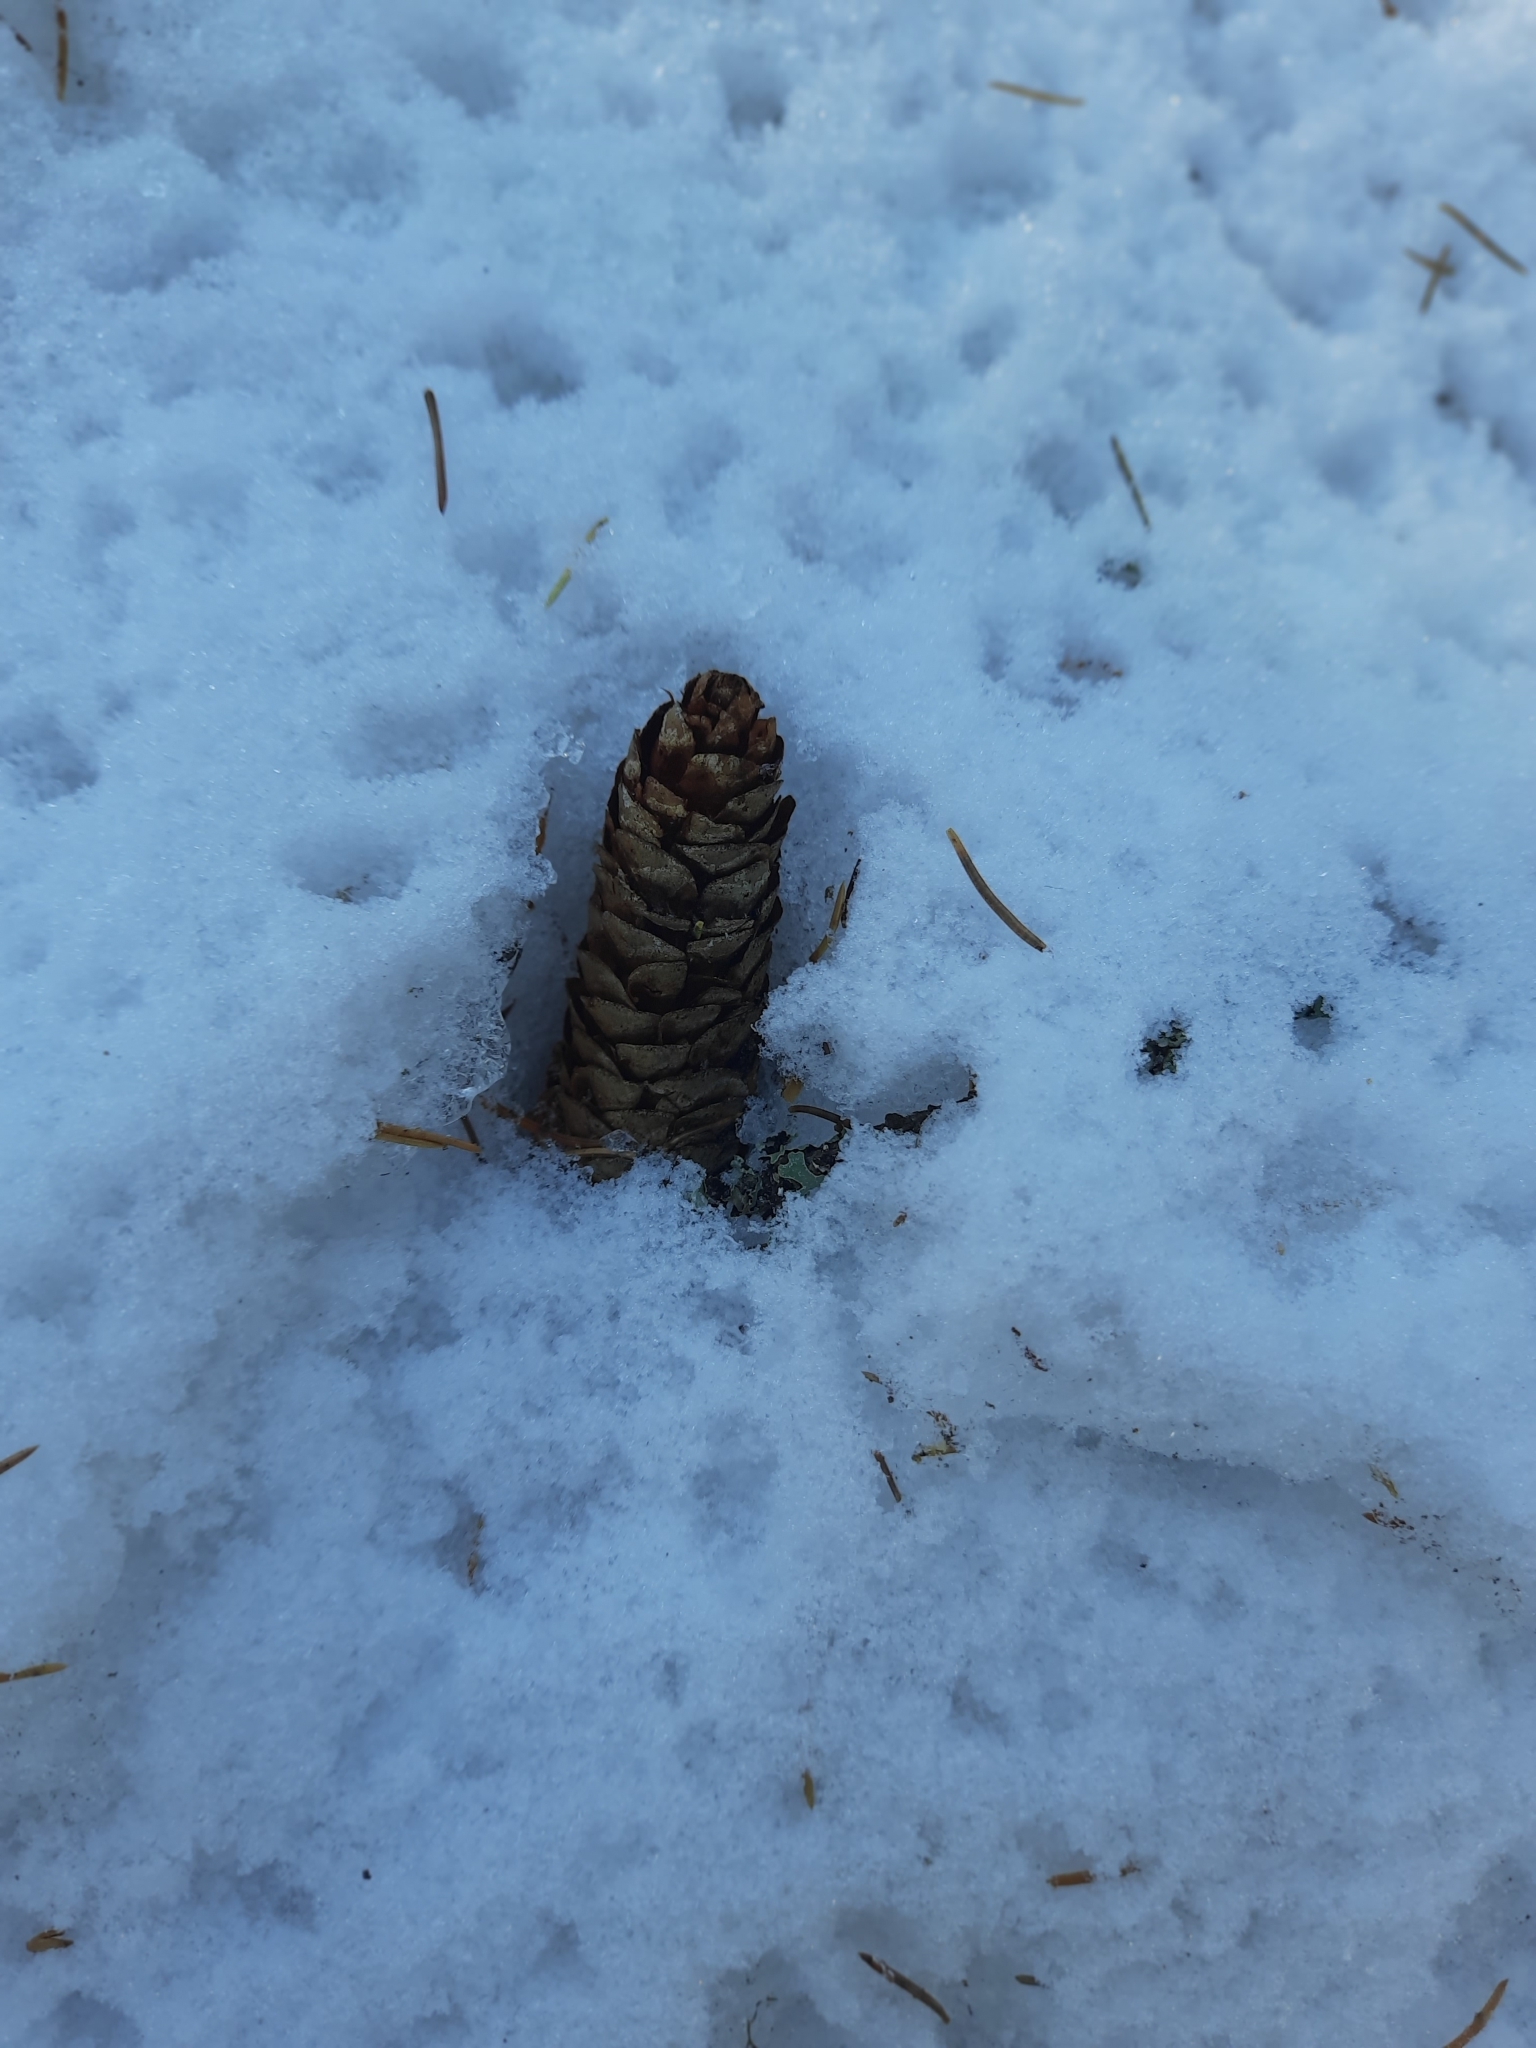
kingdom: Plantae
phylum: Tracheophyta
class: Pinopsida
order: Pinales
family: Pinaceae
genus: Picea
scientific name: Picea obovata
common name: Siberian spruce
